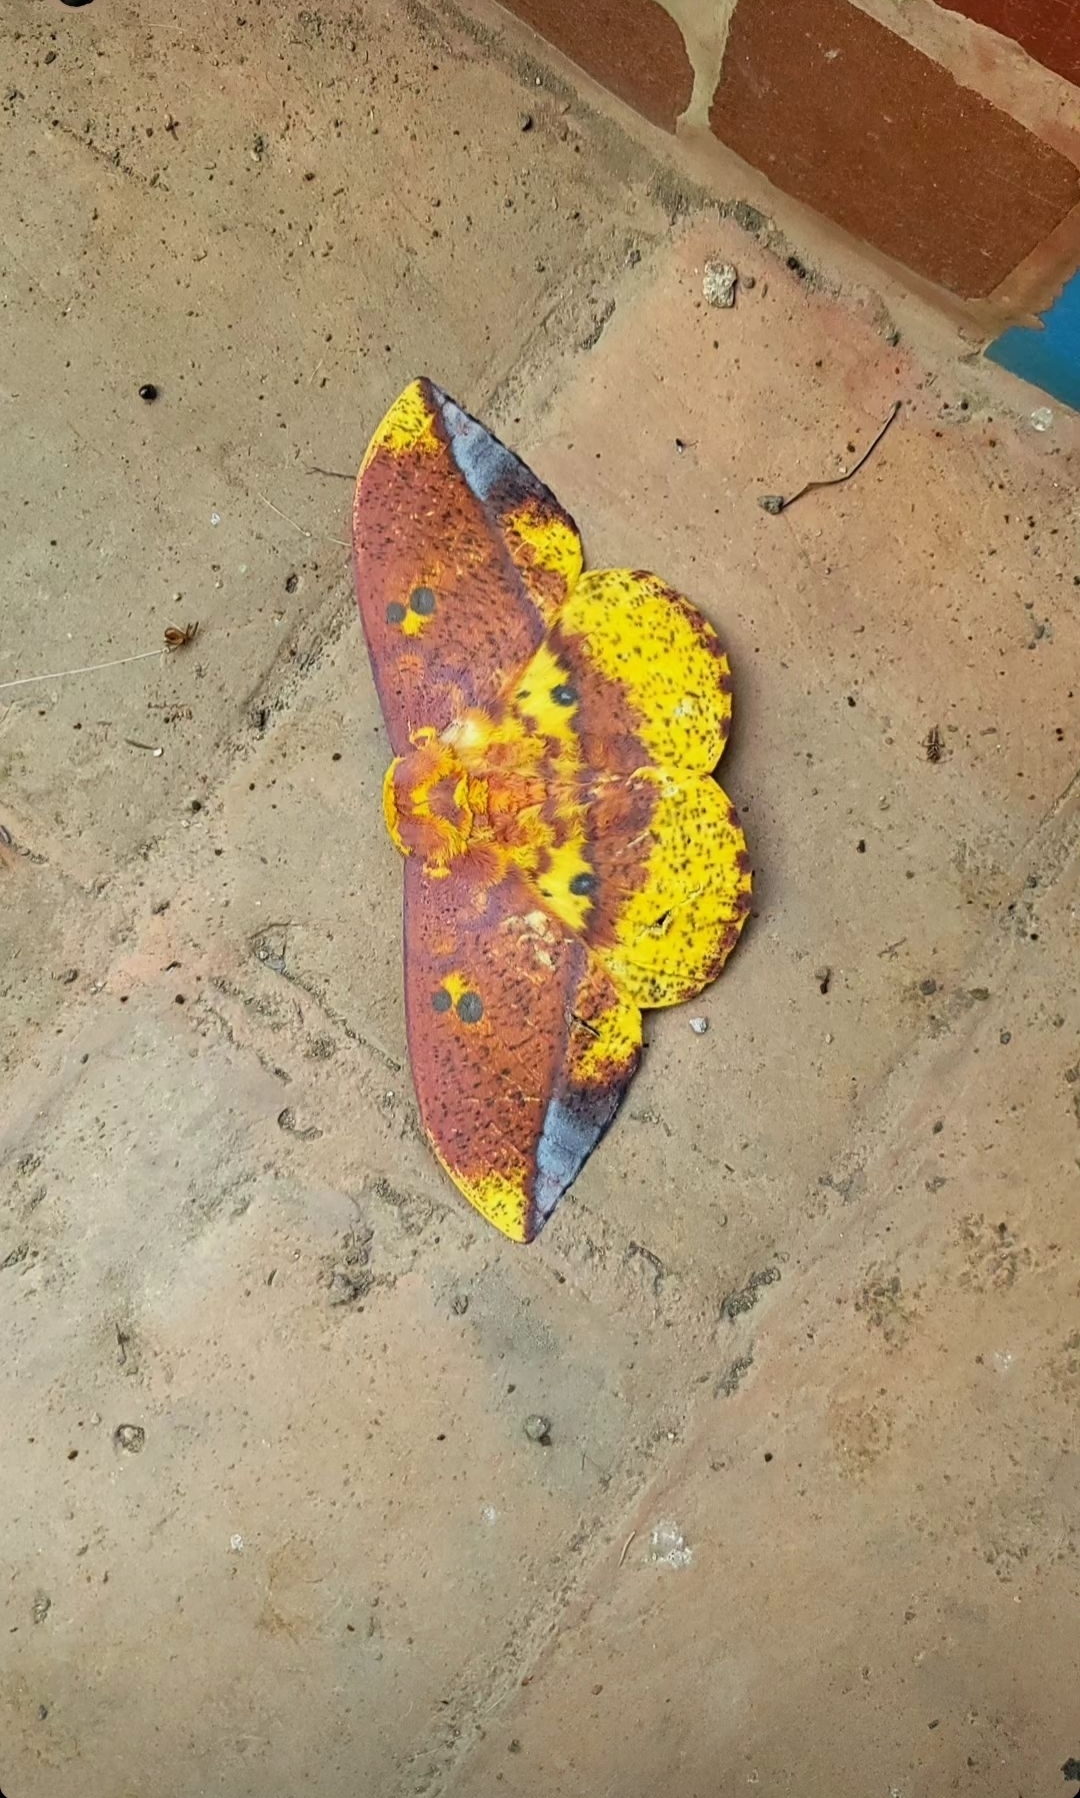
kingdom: Animalia
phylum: Arthropoda
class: Insecta
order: Lepidoptera
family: Saturniidae
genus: Eacles
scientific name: Eacles ormondei
